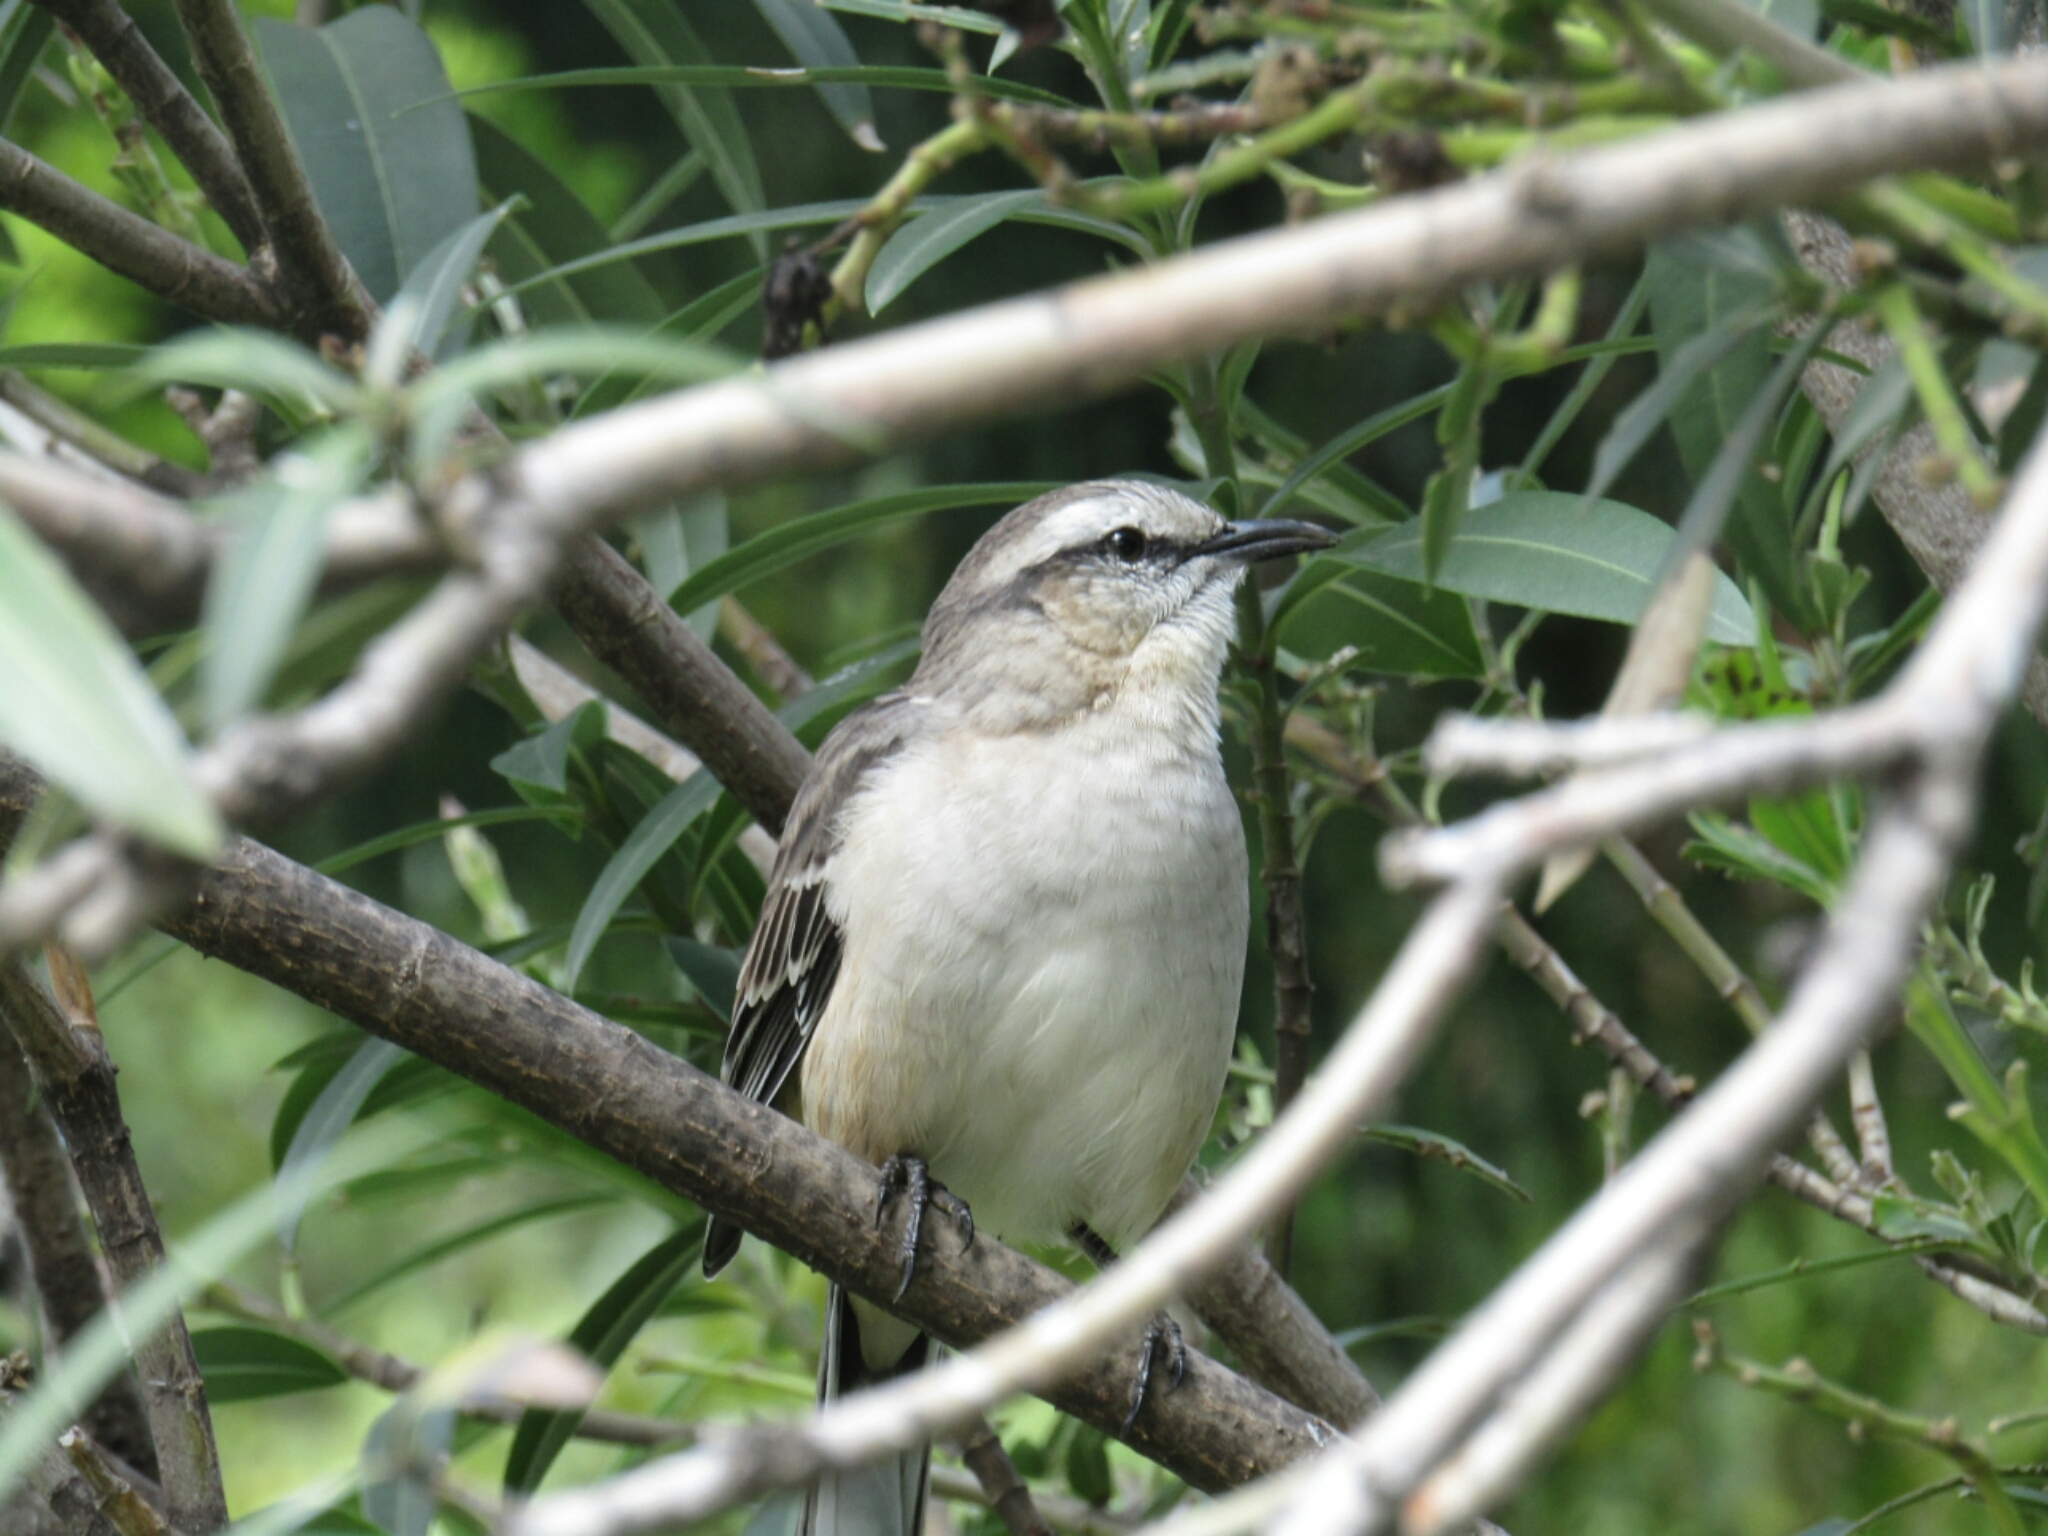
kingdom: Animalia
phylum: Chordata
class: Aves
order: Passeriformes
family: Mimidae
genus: Mimus
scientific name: Mimus saturninus
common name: Chalk-browed mockingbird
